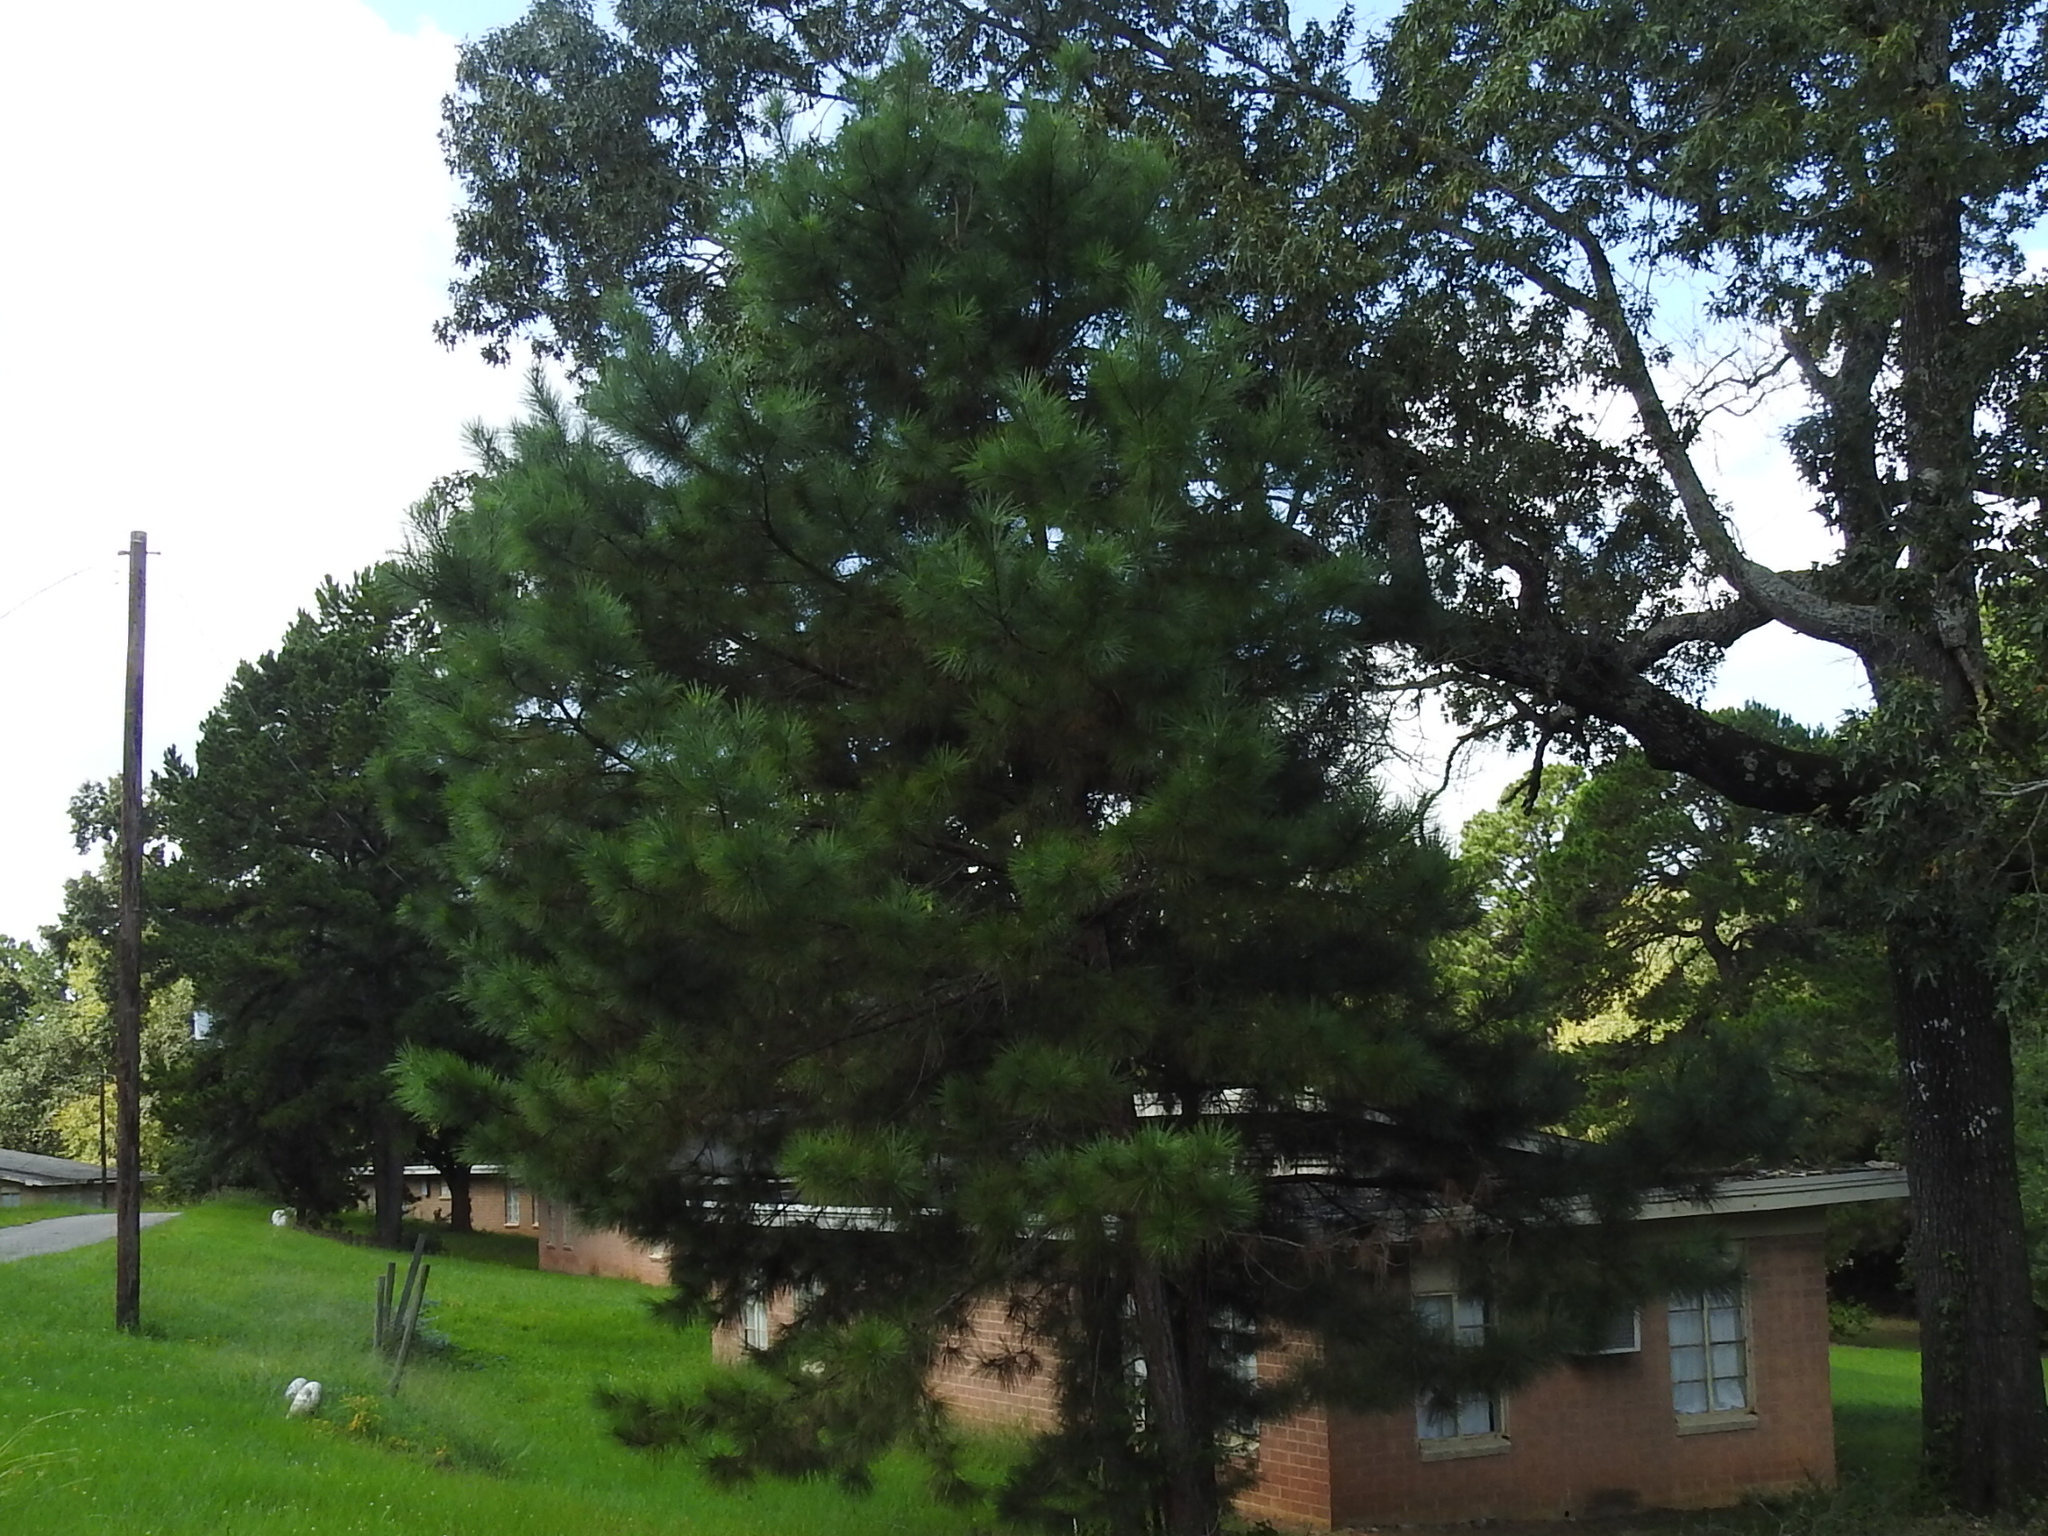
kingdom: Plantae
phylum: Tracheophyta
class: Pinopsida
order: Pinales
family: Pinaceae
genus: Pinus
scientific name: Pinus taeda
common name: Loblolly pine
